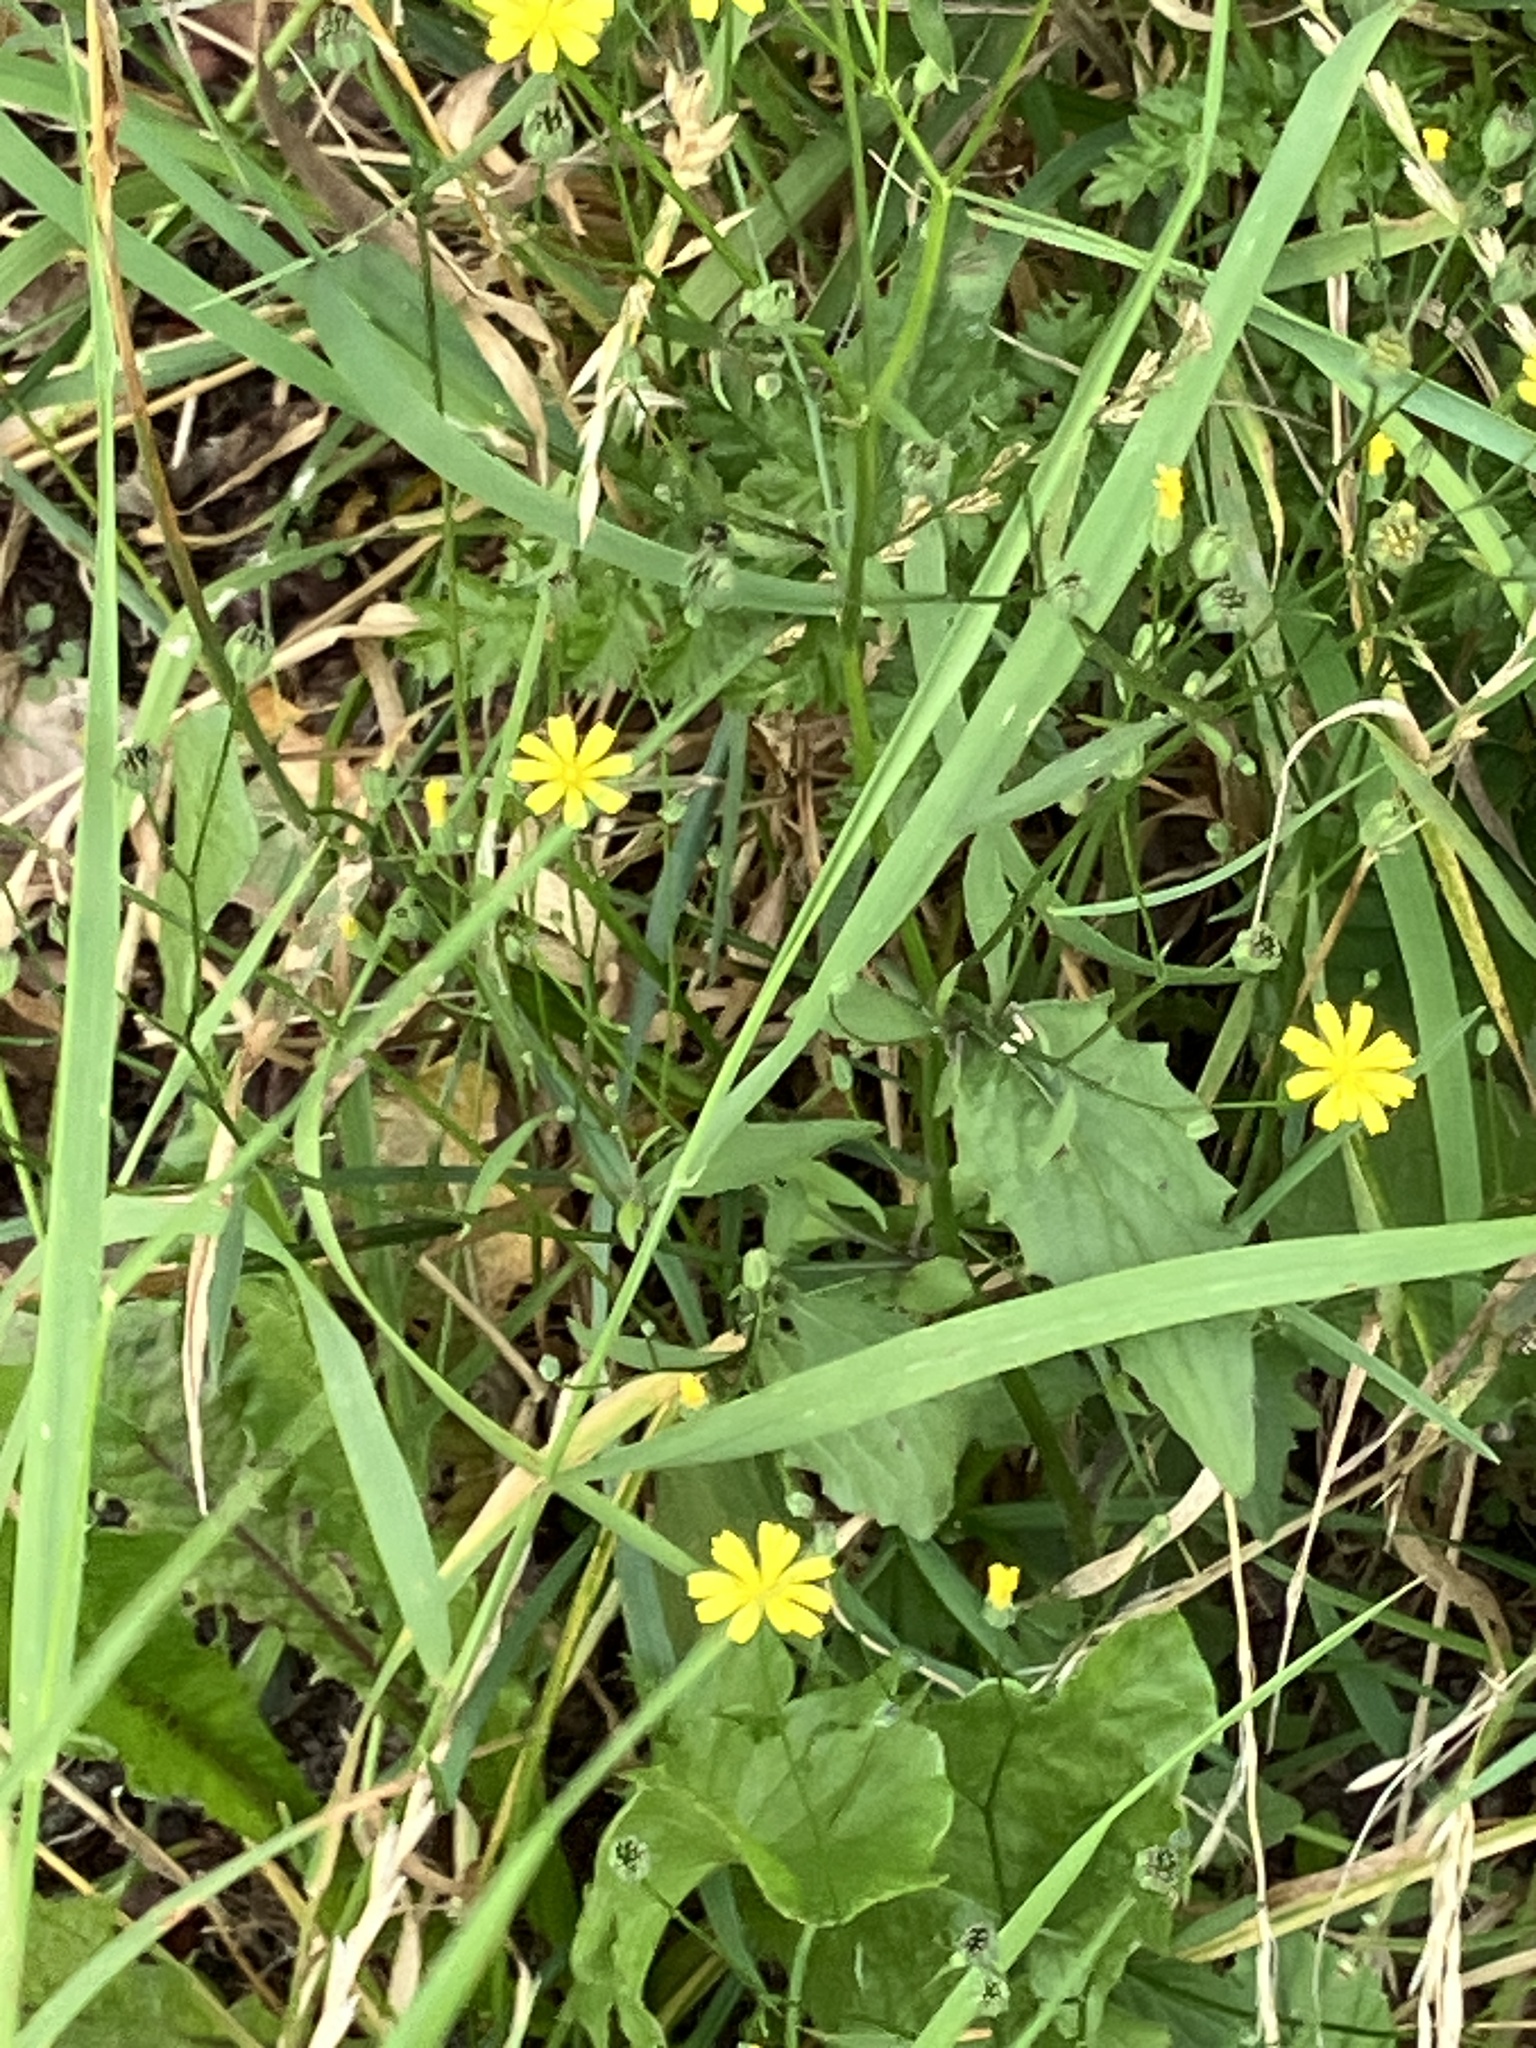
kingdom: Plantae
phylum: Tracheophyta
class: Magnoliopsida
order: Asterales
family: Asteraceae
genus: Lapsana
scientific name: Lapsana communis
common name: Nipplewort
